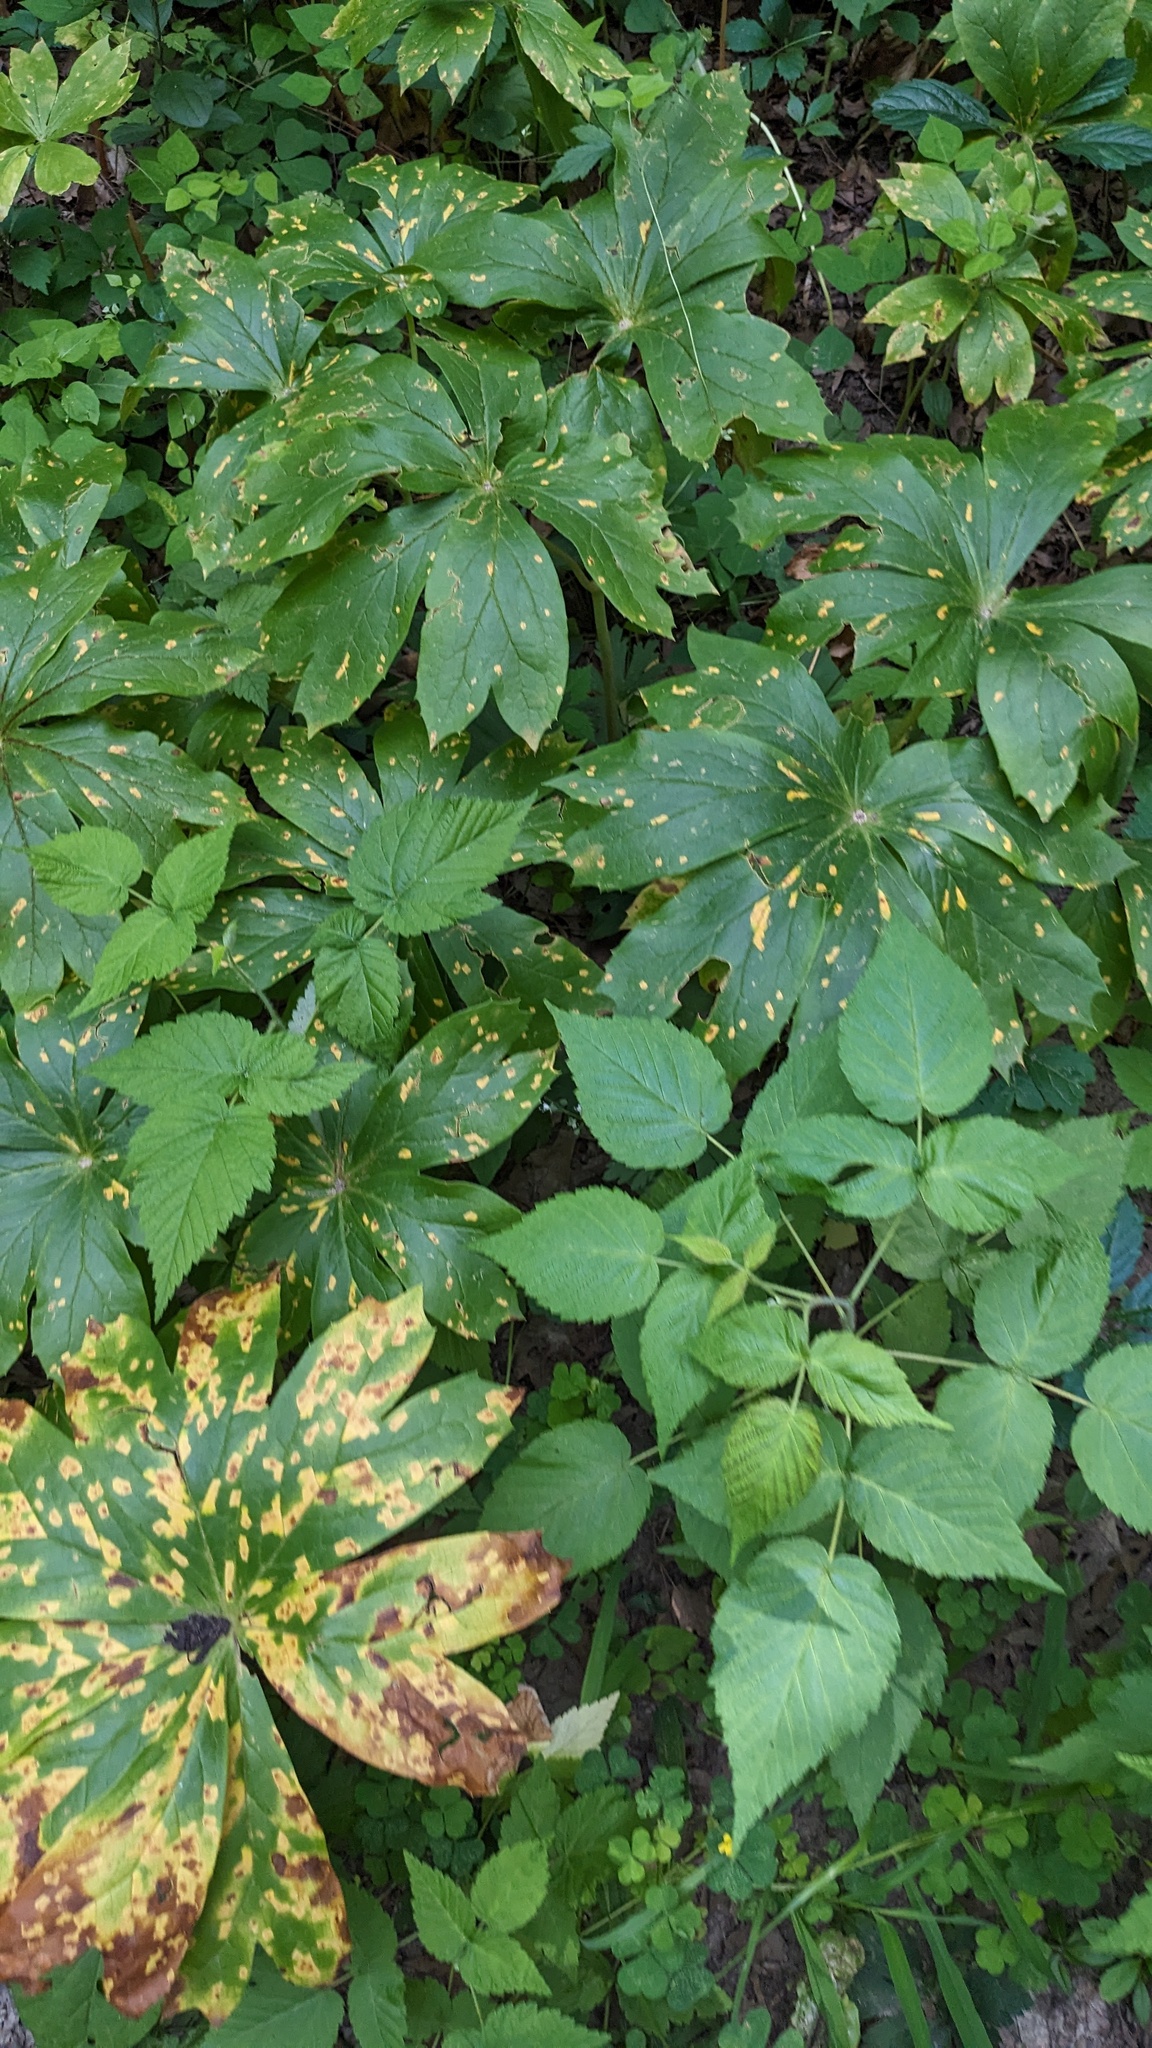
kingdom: Plantae
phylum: Tracheophyta
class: Magnoliopsida
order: Ranunculales
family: Berberidaceae
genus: Podophyllum
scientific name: Podophyllum peltatum
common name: Wild mandrake
